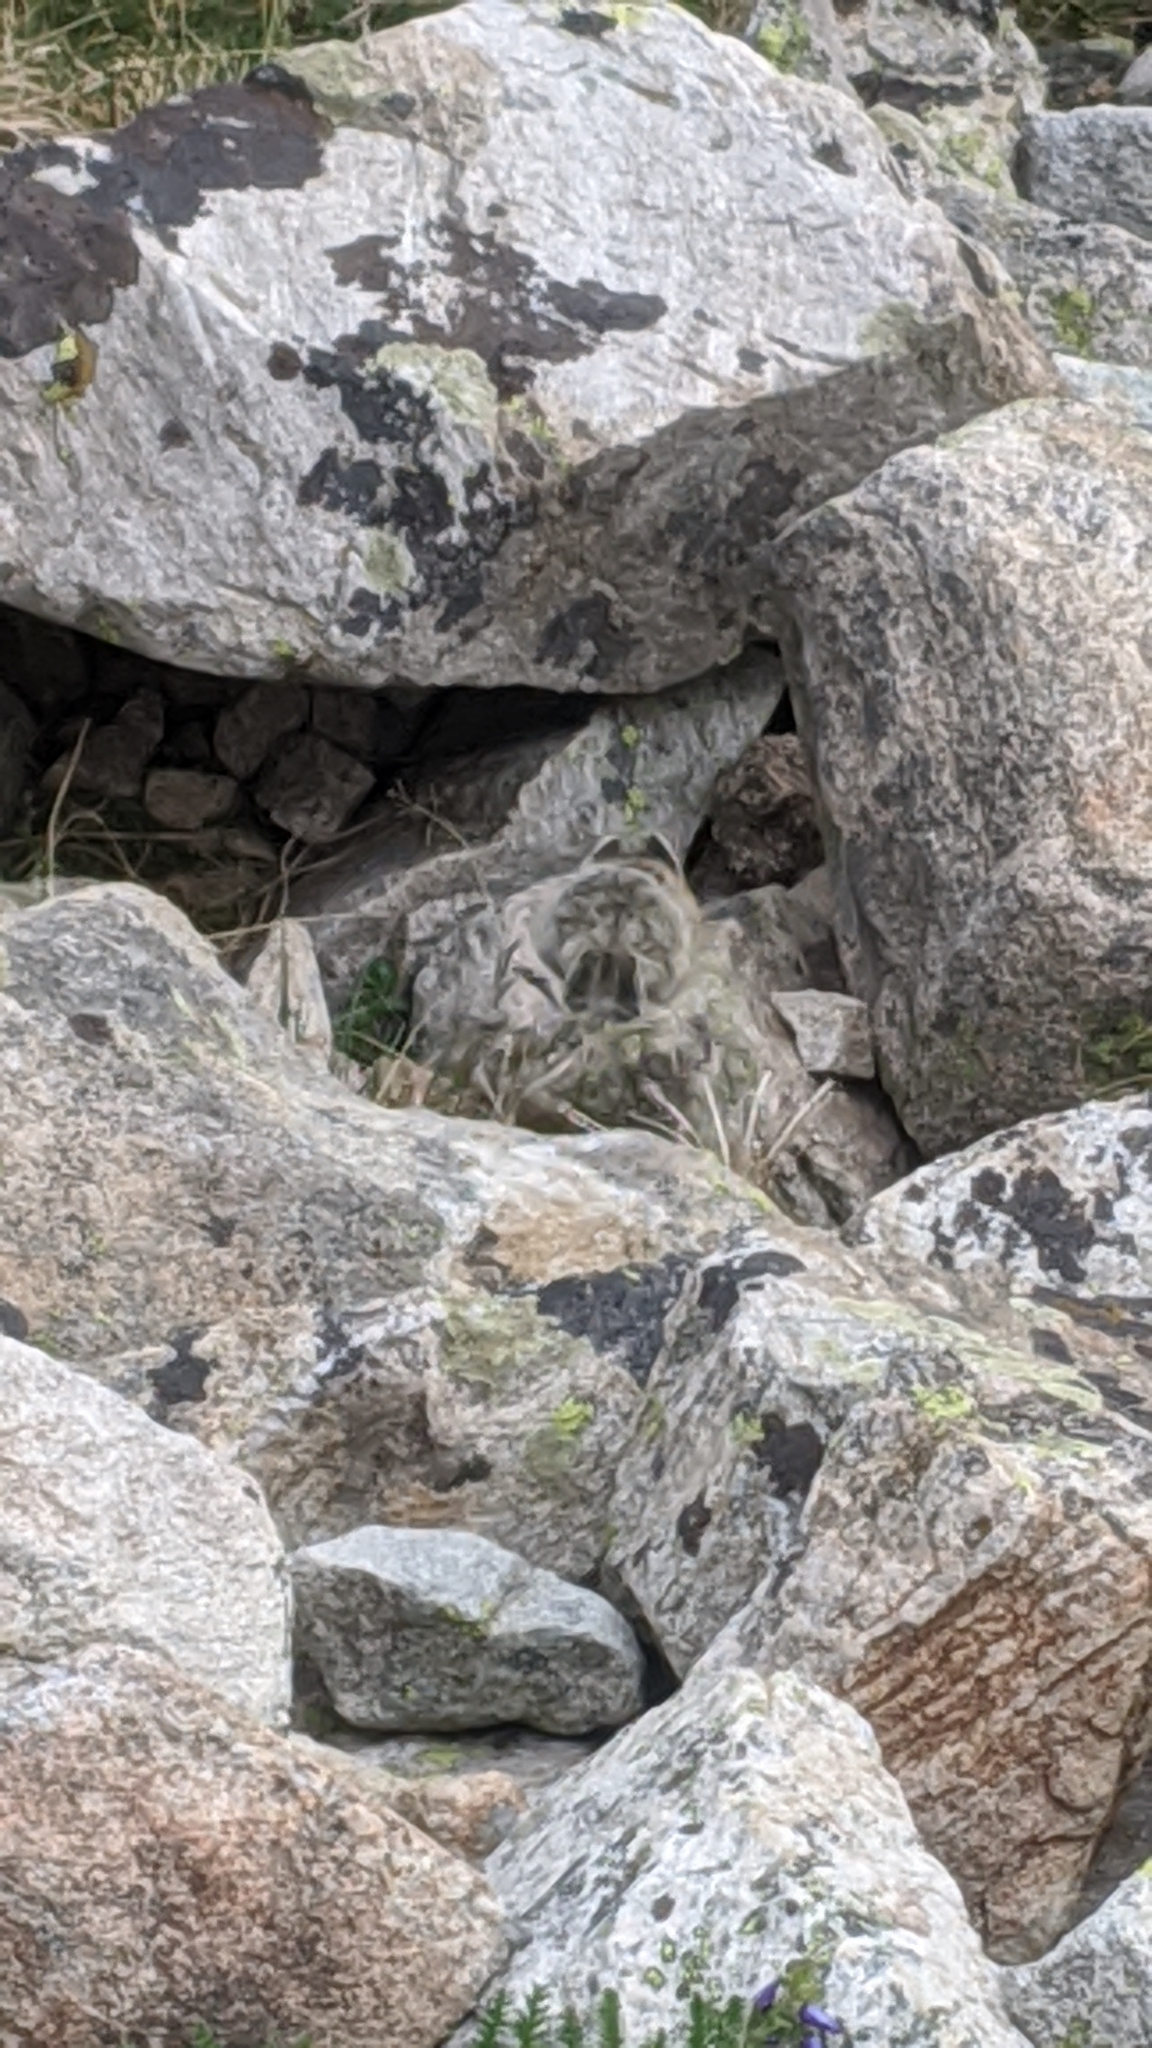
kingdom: Animalia
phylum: Chordata
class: Mammalia
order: Lagomorpha
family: Ochotonidae
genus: Ochotona
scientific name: Ochotona princeps
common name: American pika
